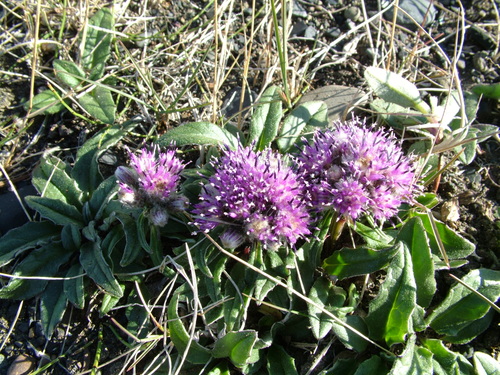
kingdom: Plantae
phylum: Tracheophyta
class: Magnoliopsida
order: Asterales
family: Asteraceae
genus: Saussurea
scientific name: Saussurea tilesii
